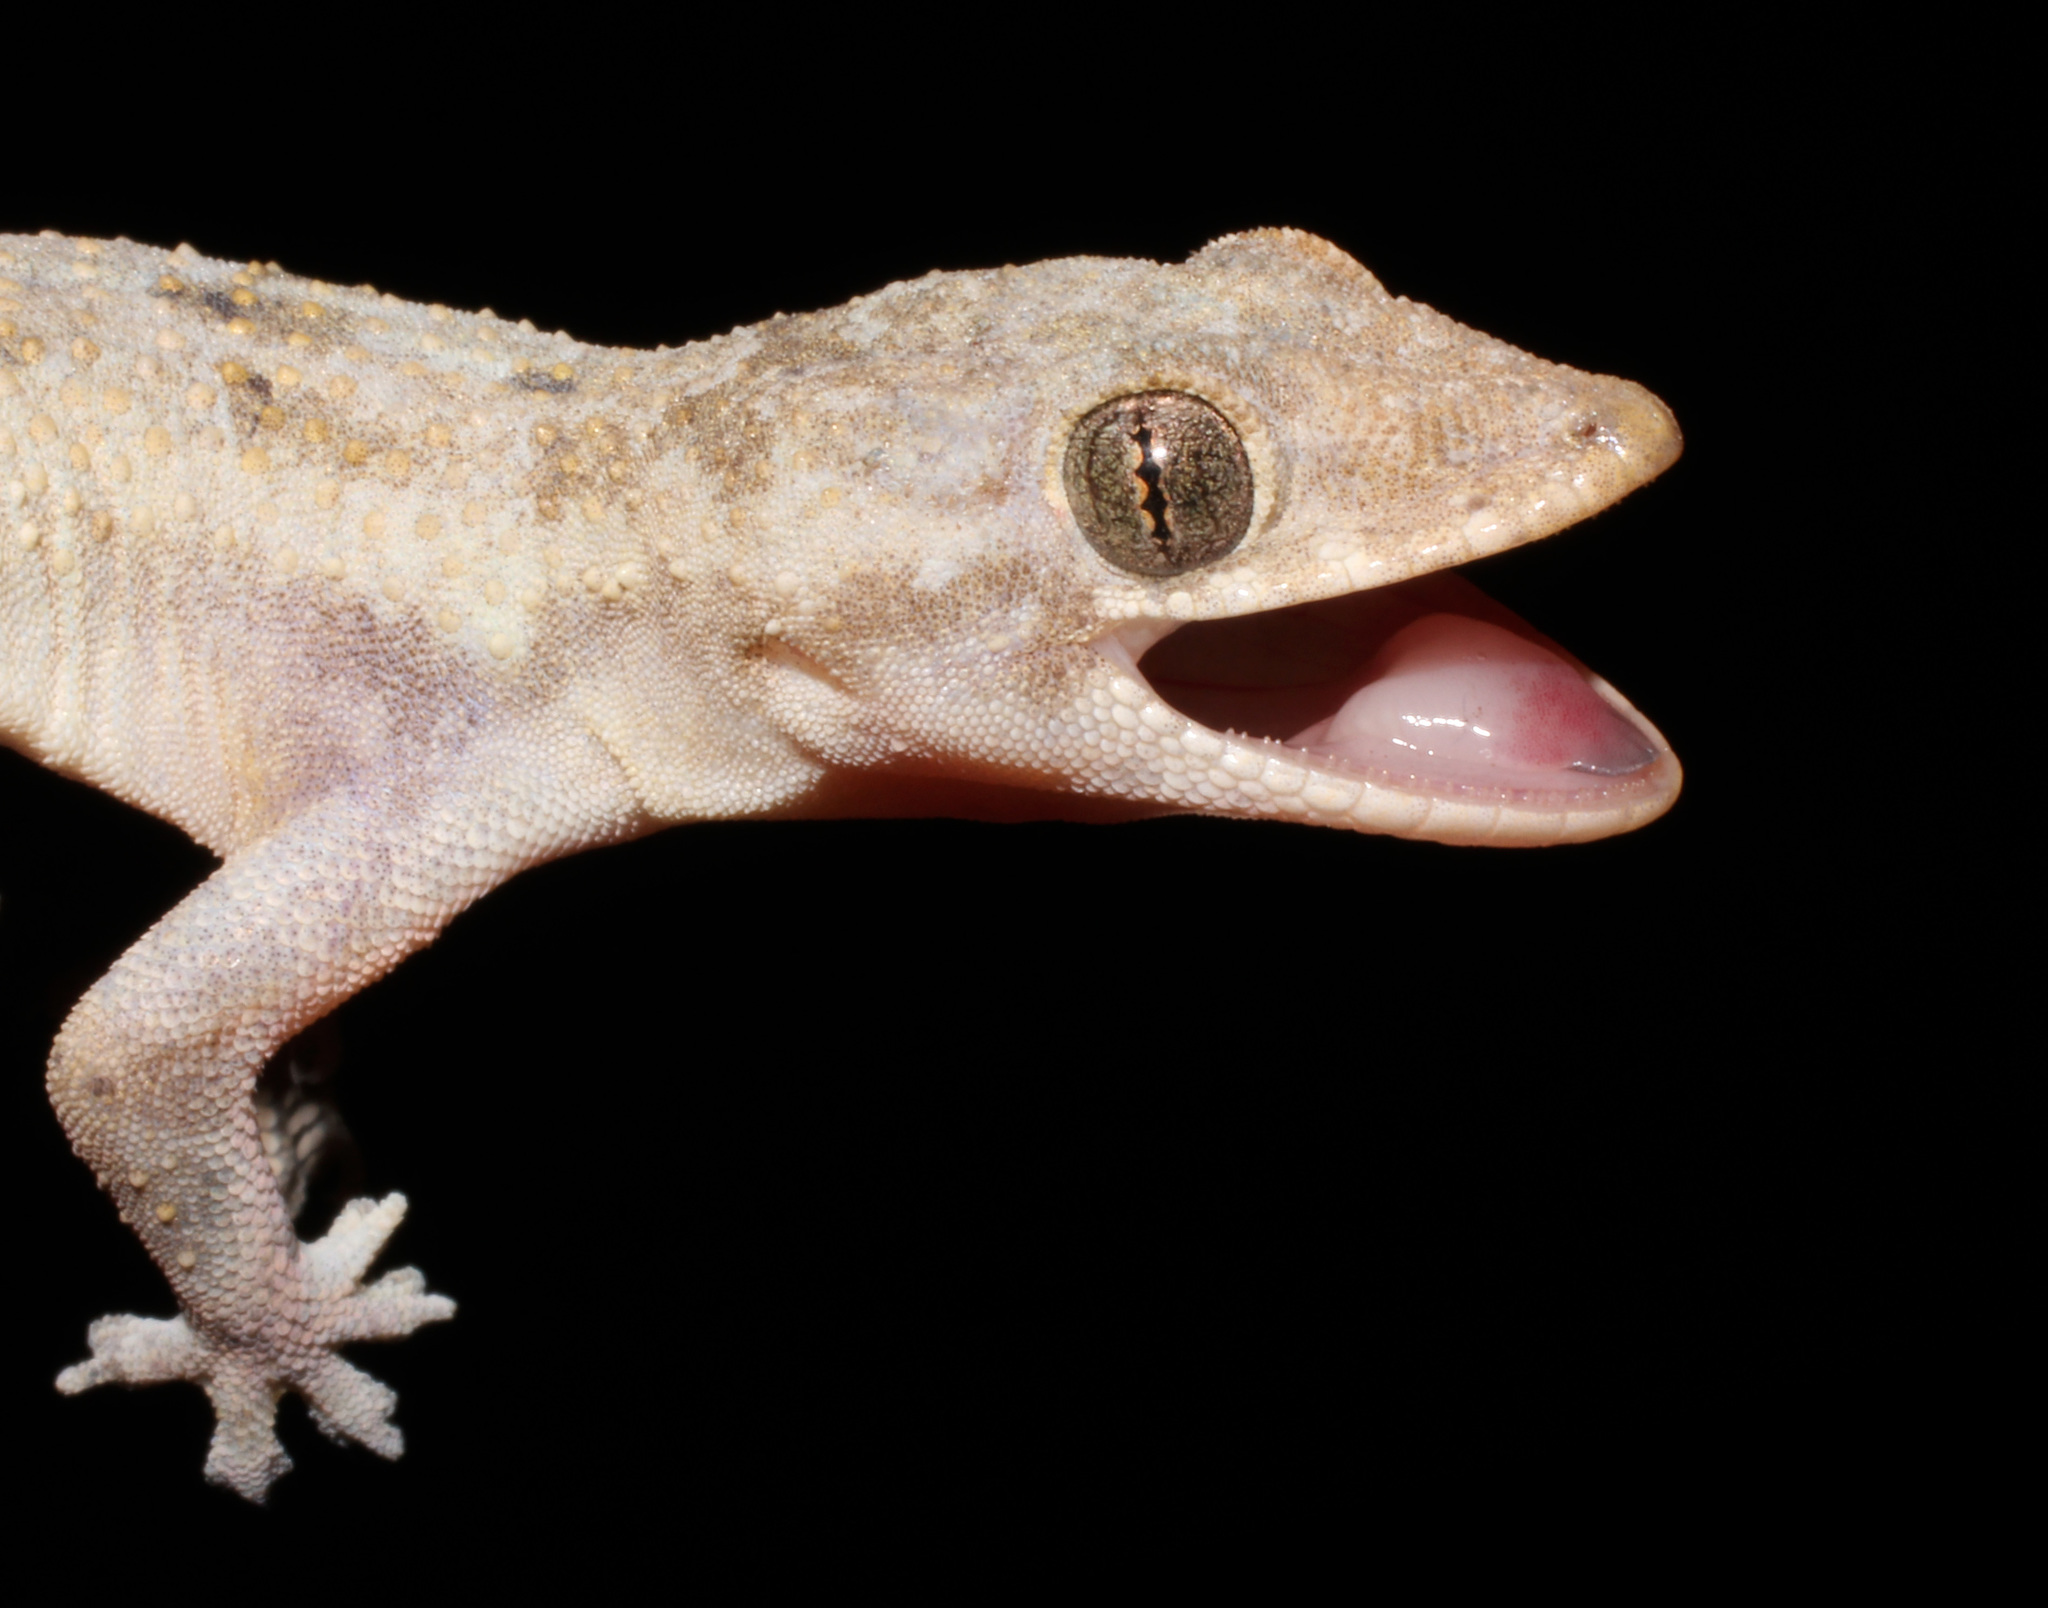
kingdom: Animalia
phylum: Chordata
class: Squamata
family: Gekkonidae
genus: Hemidactylus
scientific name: Hemidactylus mabouia
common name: House gecko
